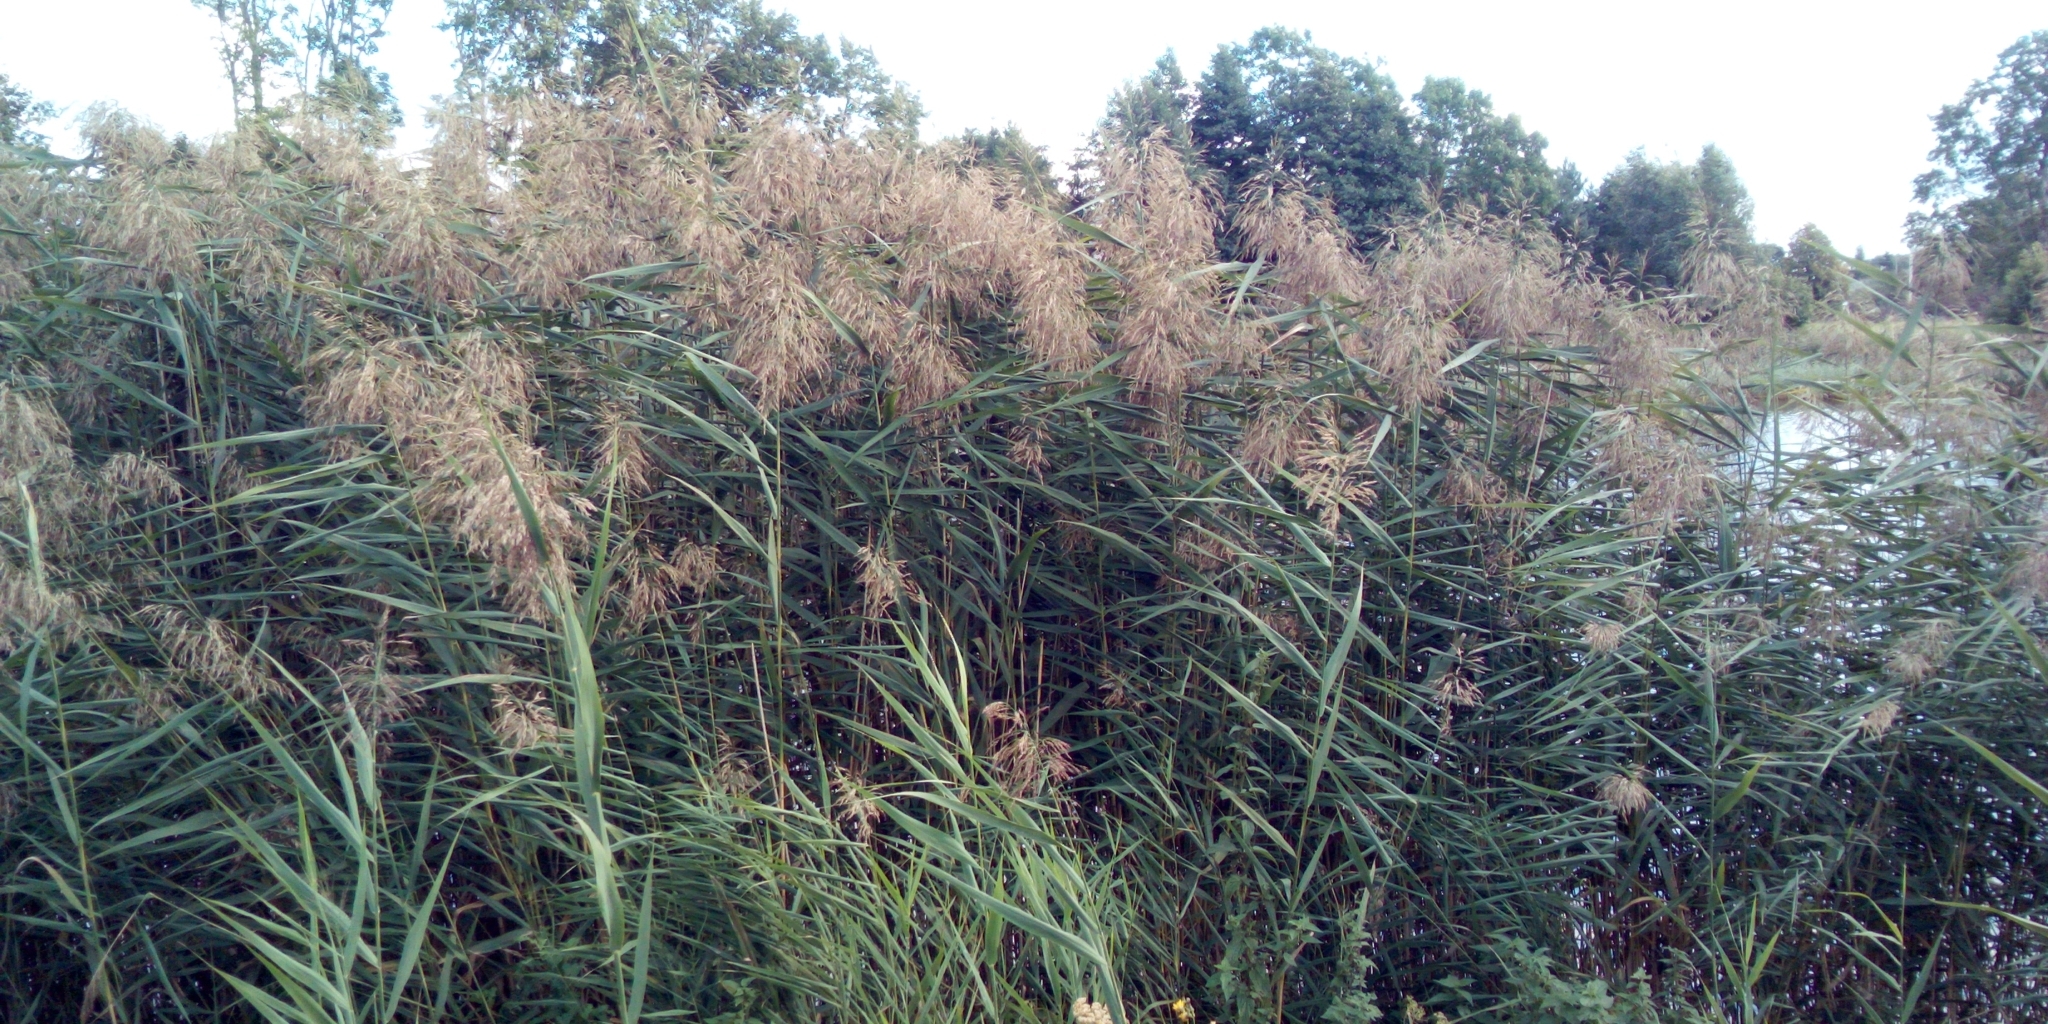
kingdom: Plantae
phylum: Tracheophyta
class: Liliopsida
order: Poales
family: Poaceae
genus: Phragmites
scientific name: Phragmites australis
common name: Common reed
